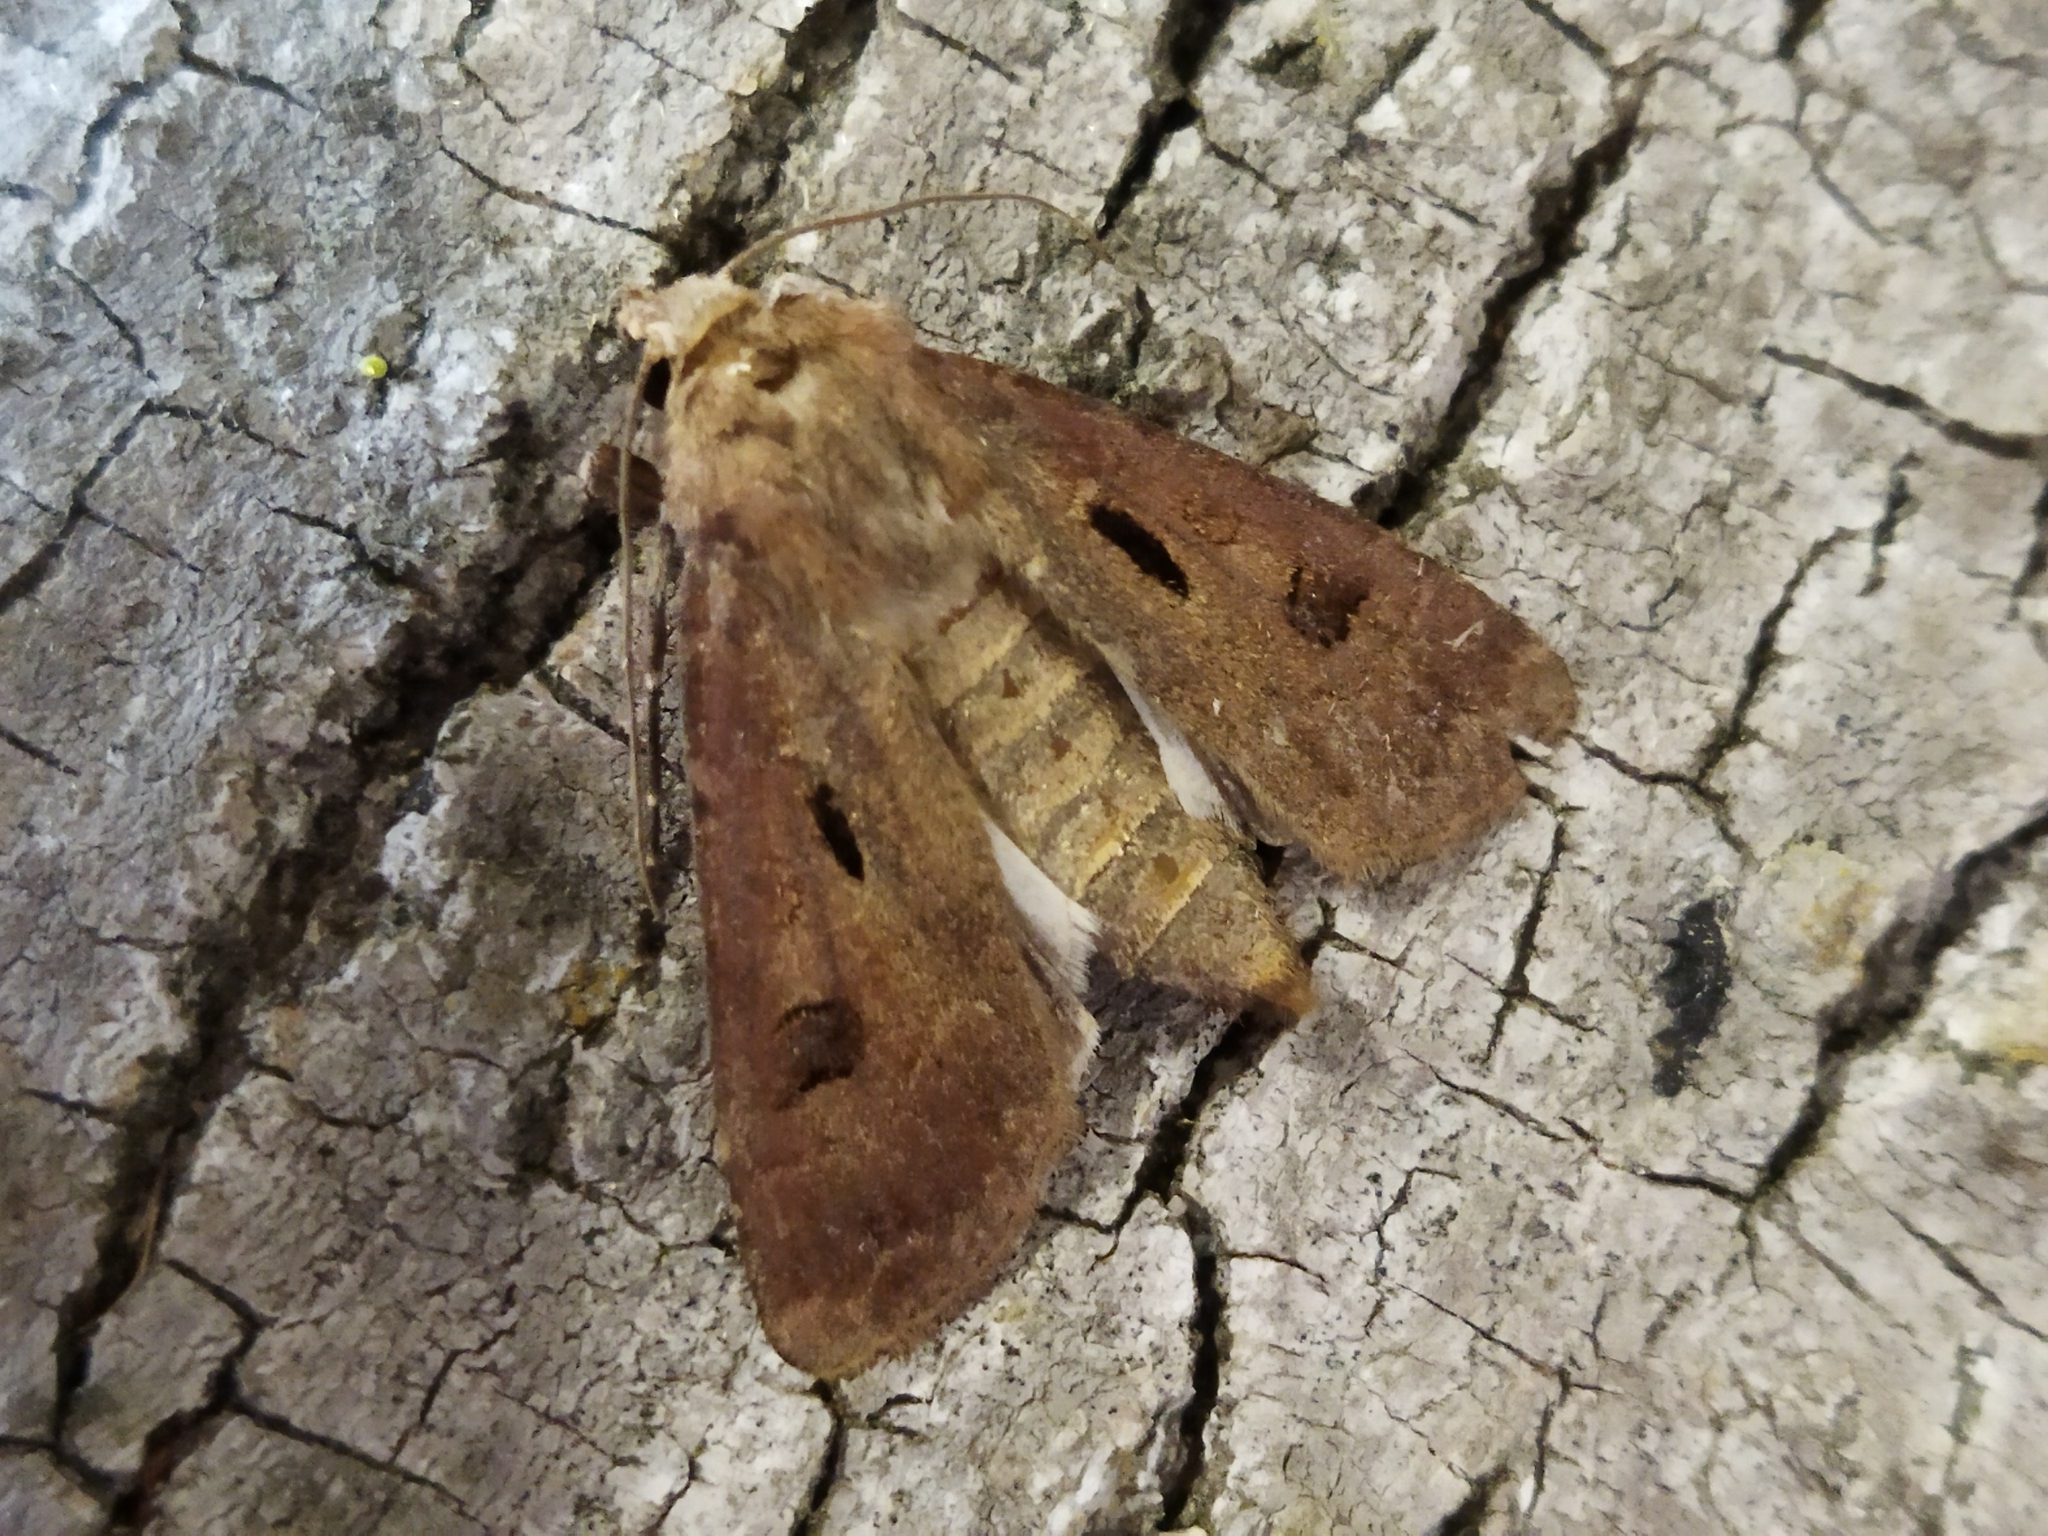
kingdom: Animalia
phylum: Arthropoda
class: Insecta
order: Lepidoptera
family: Noctuidae
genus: Agrotis
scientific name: Agrotis exclamationis
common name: Heart and dart
